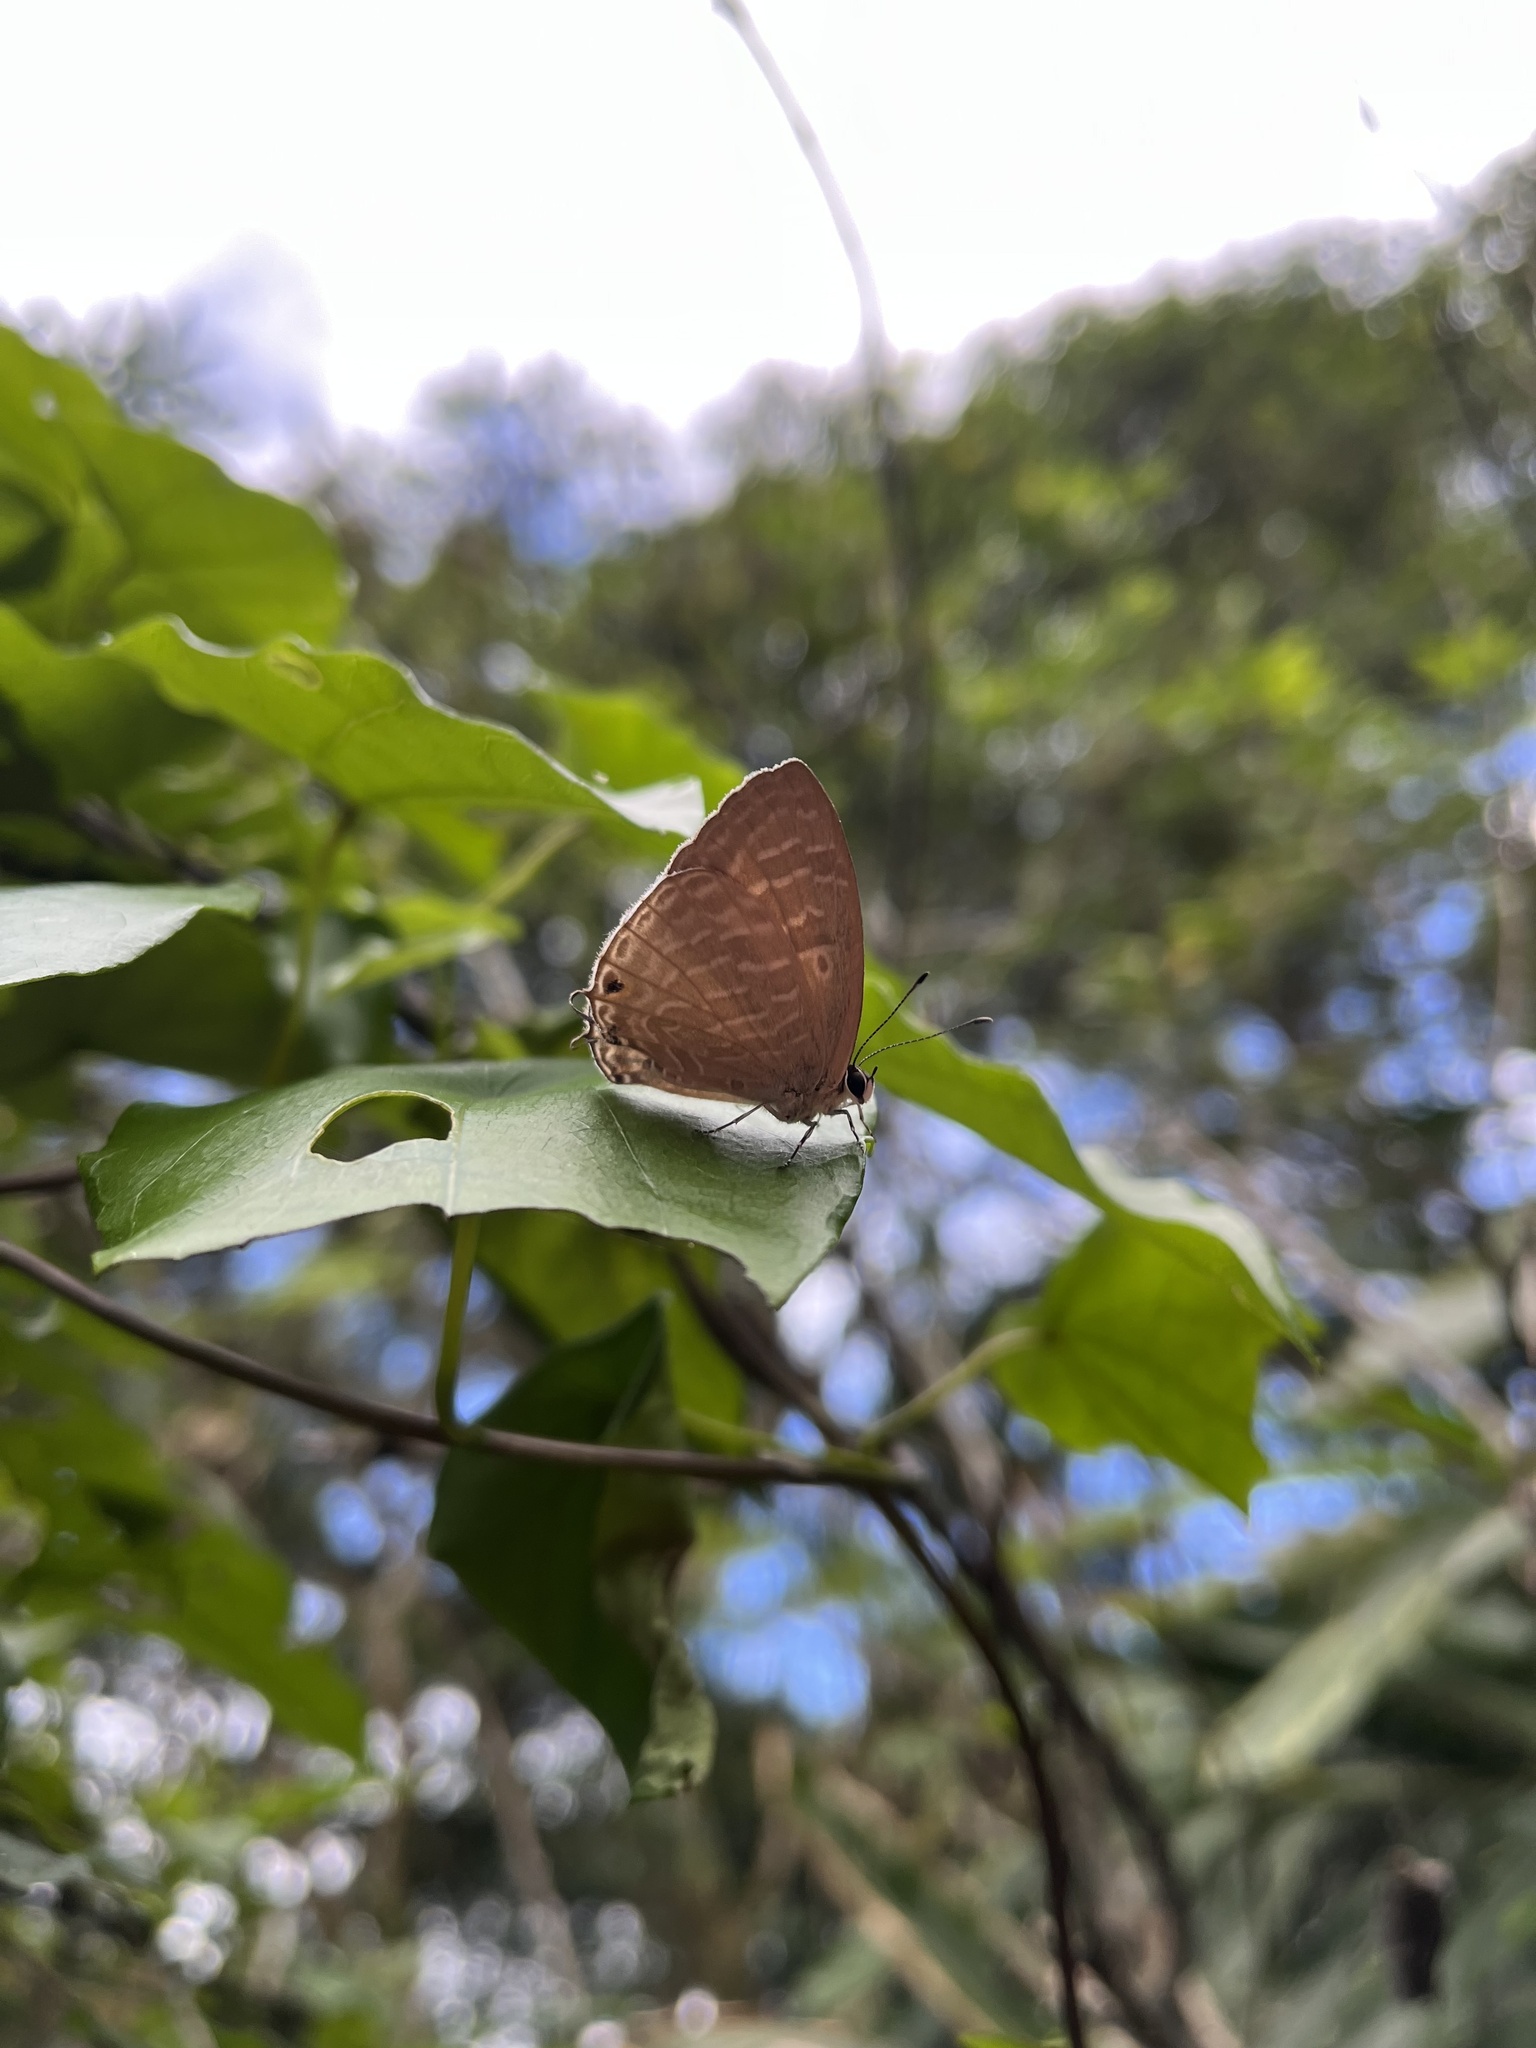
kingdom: Animalia
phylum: Arthropoda
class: Insecta
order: Lepidoptera
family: Lycaenidae
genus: Jamides
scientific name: Jamides alecto
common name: Metallic cerulean
